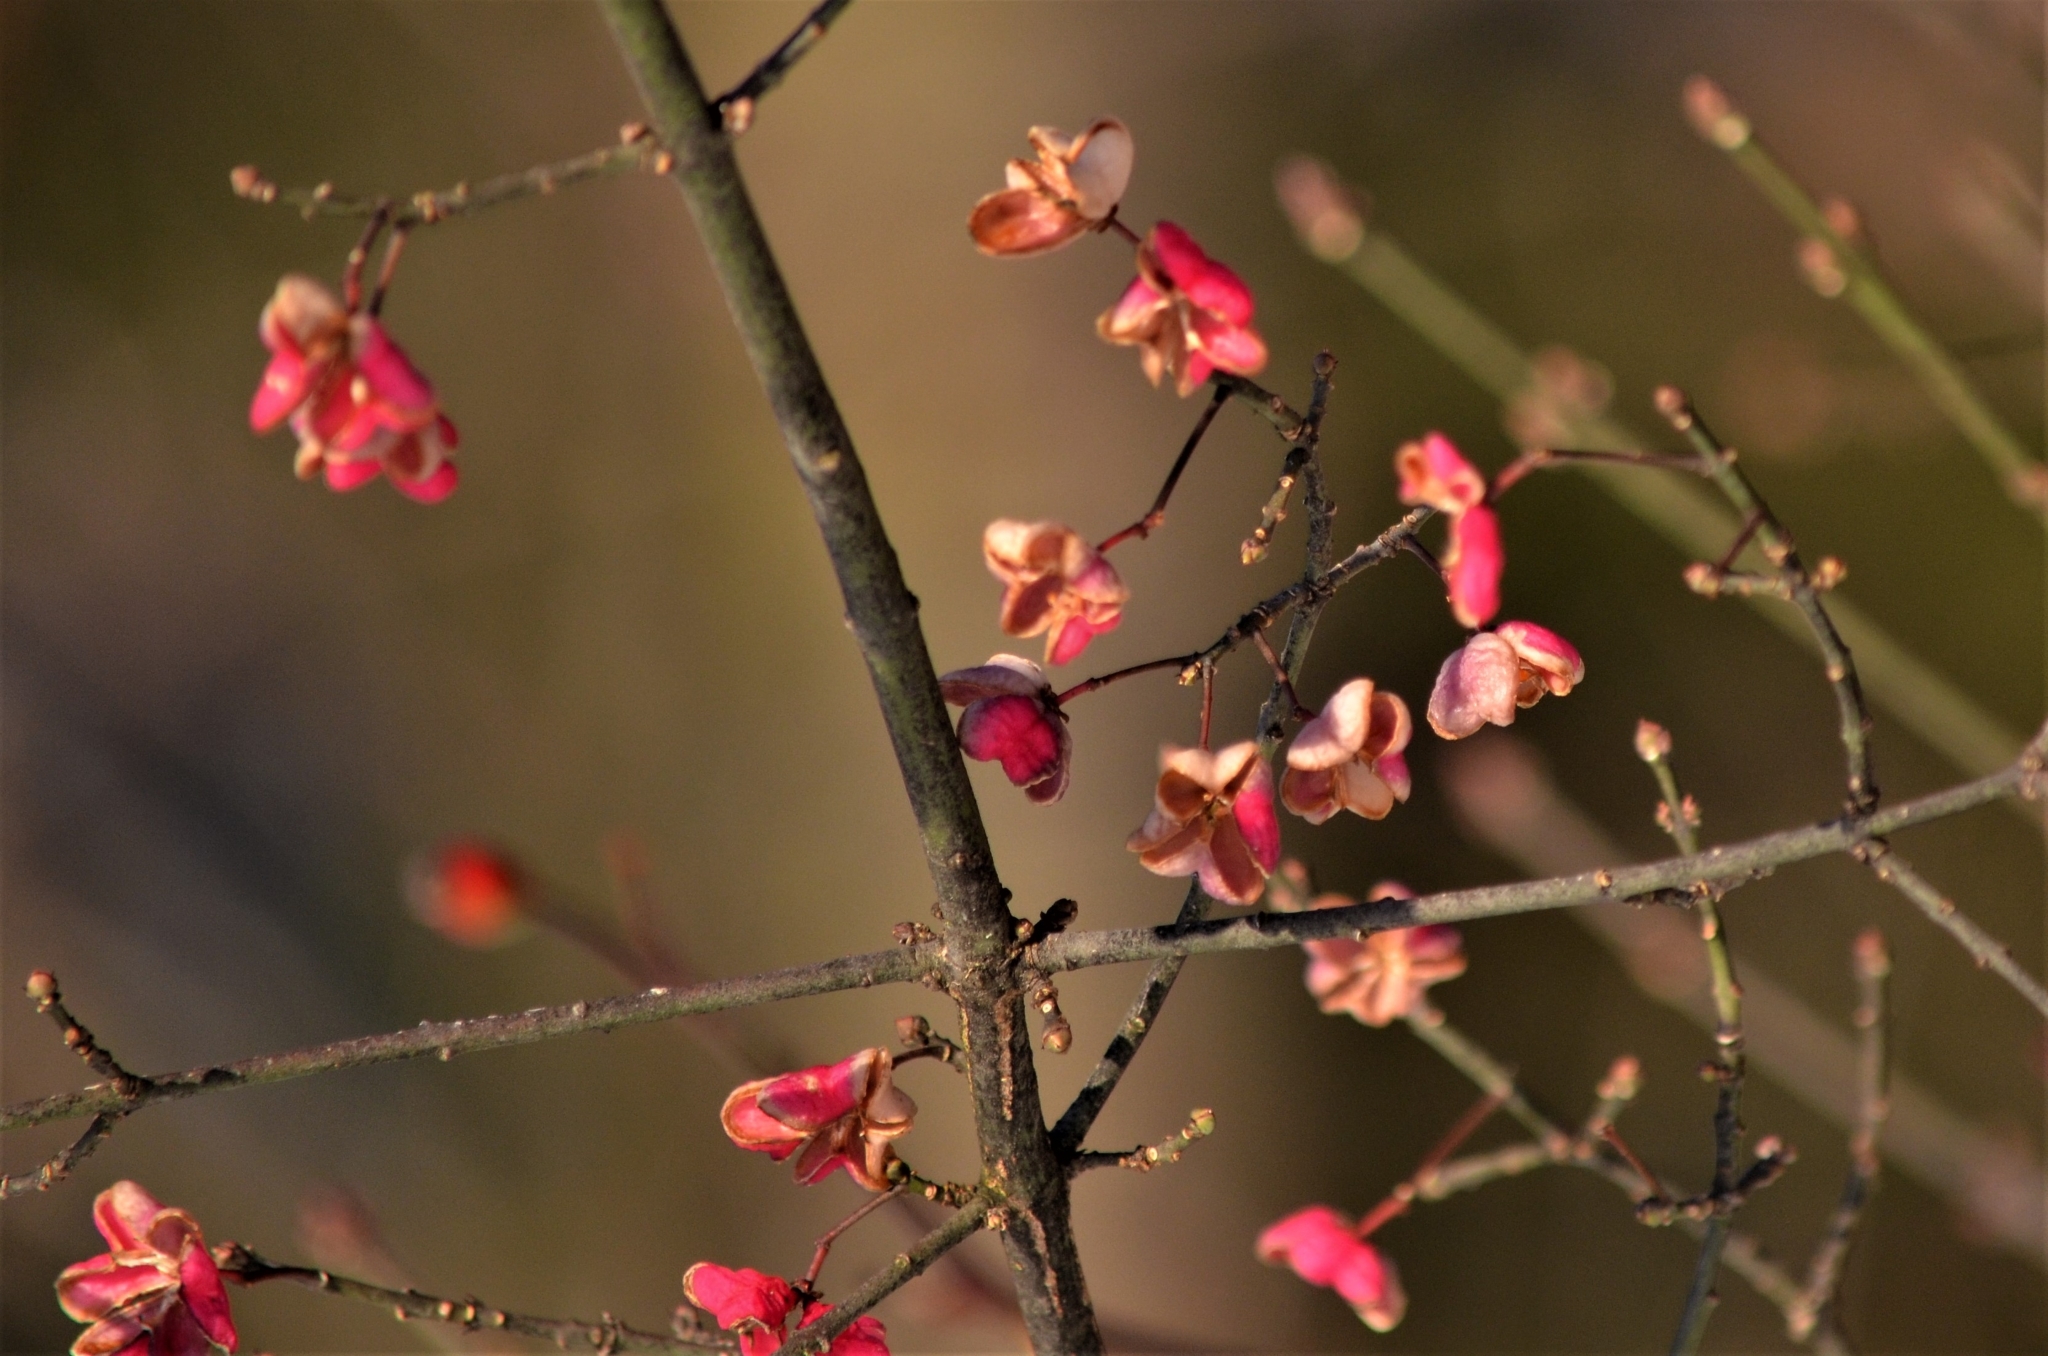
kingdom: Plantae
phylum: Tracheophyta
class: Magnoliopsida
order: Celastrales
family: Celastraceae
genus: Euonymus
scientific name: Euonymus europaeus
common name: Spindle
